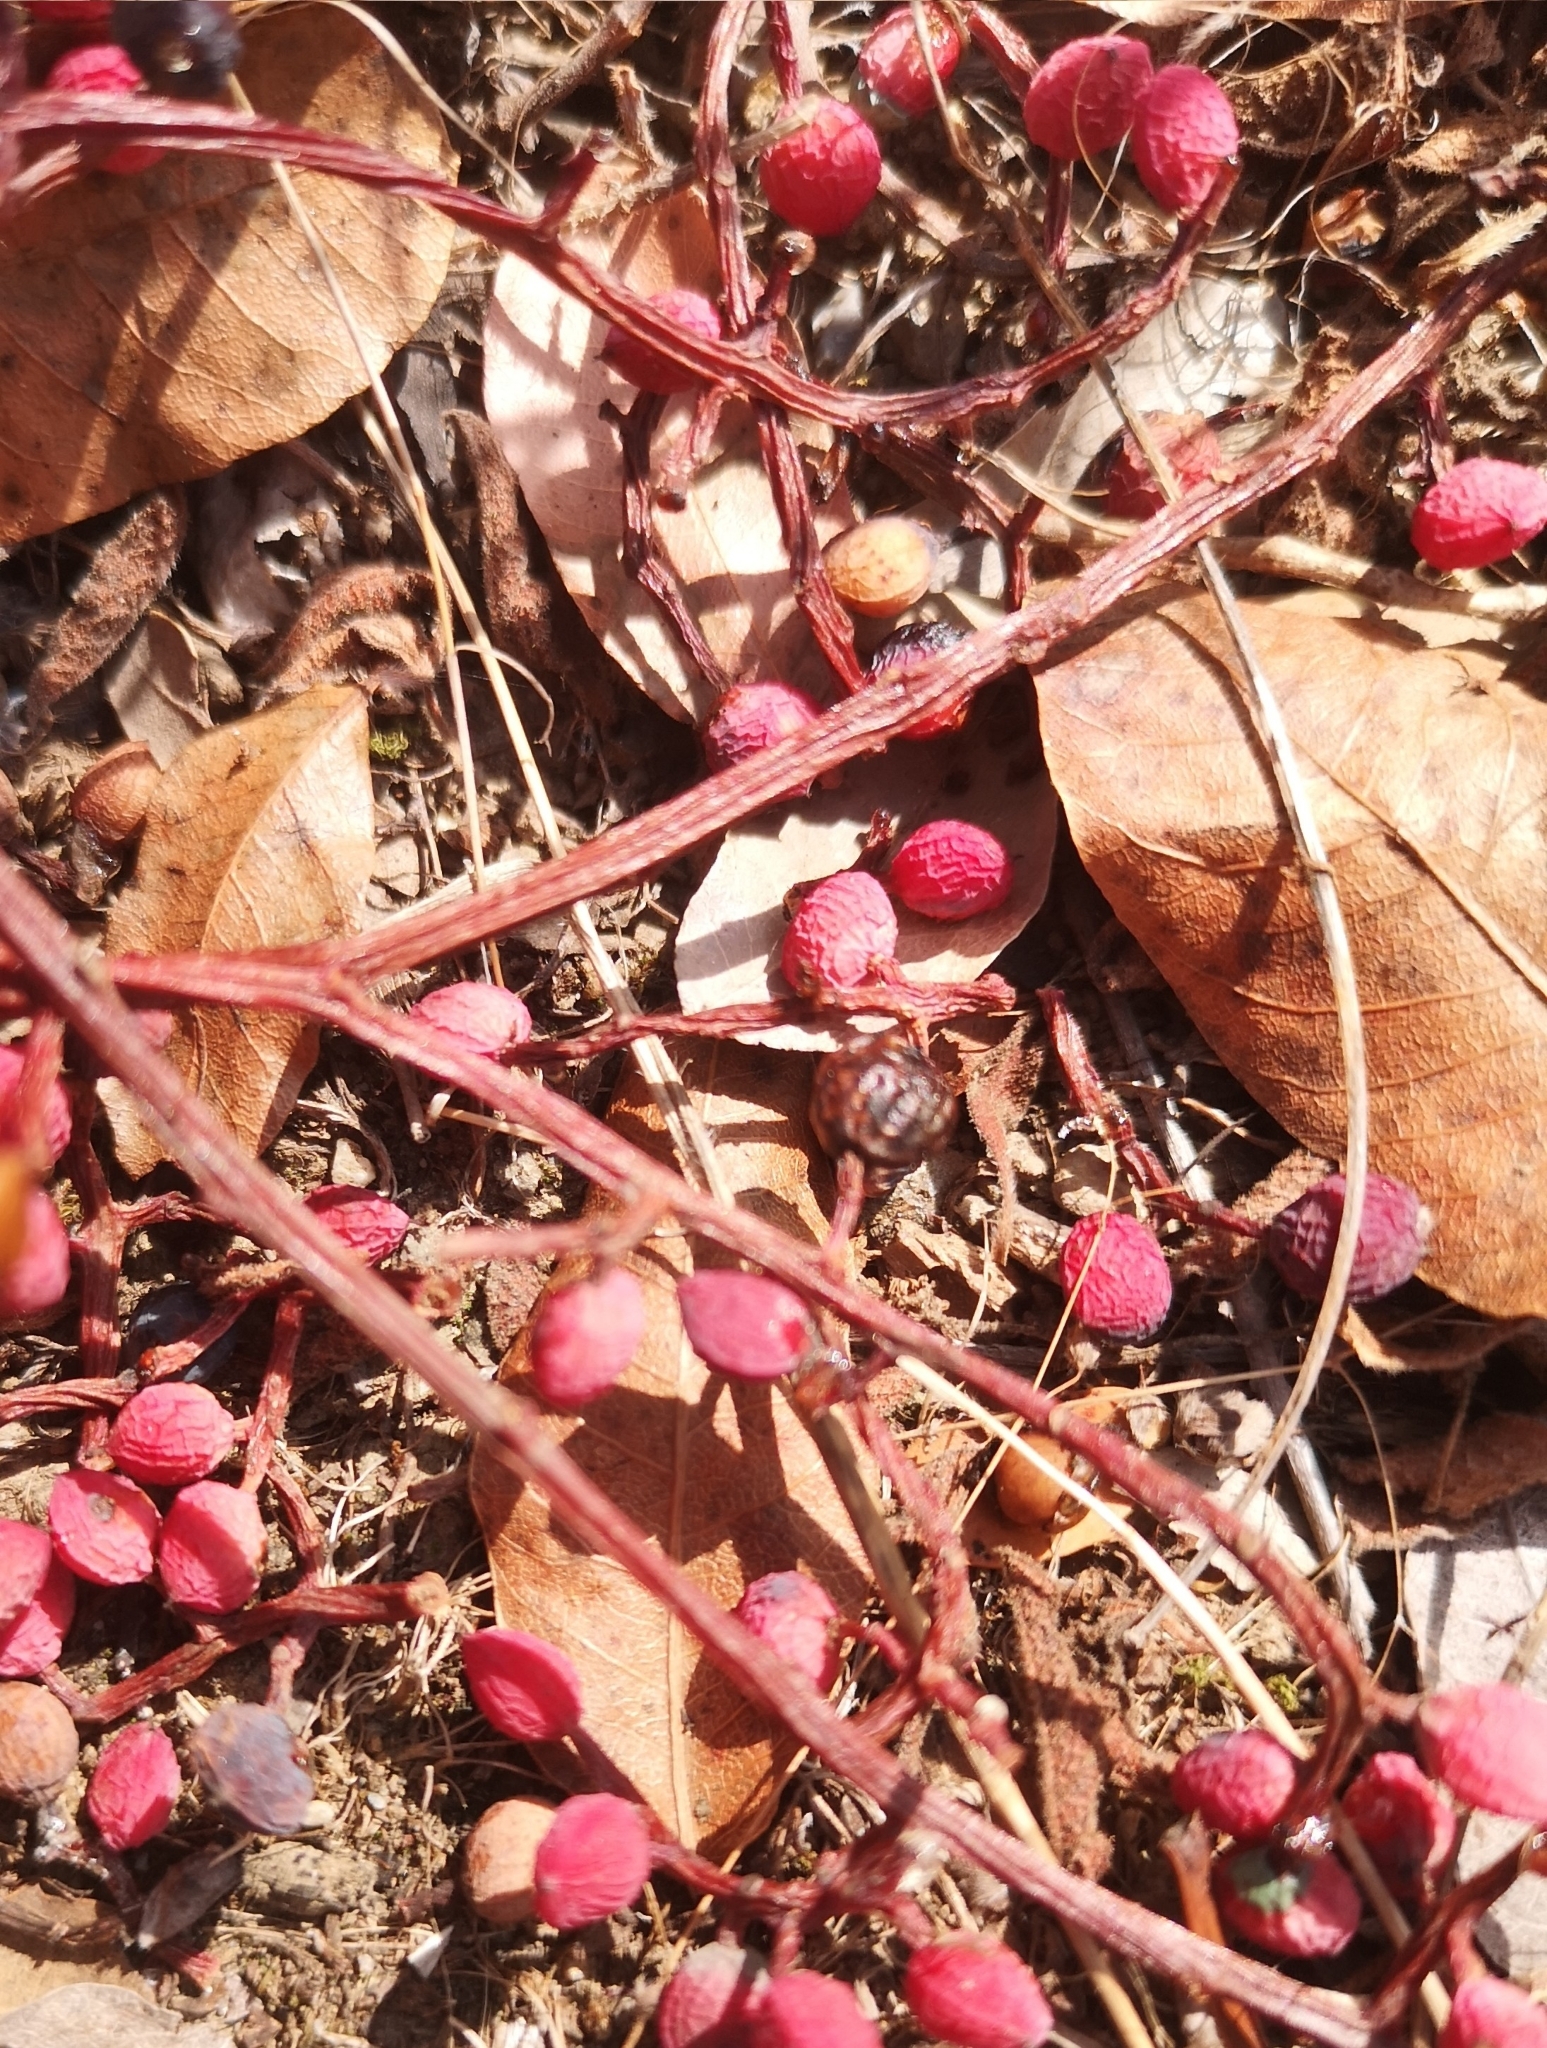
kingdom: Plantae
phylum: Tracheophyta
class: Magnoliopsida
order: Sapindales
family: Anacardiaceae
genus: Pistacia
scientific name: Pistacia terebinthus
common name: Terebinth
